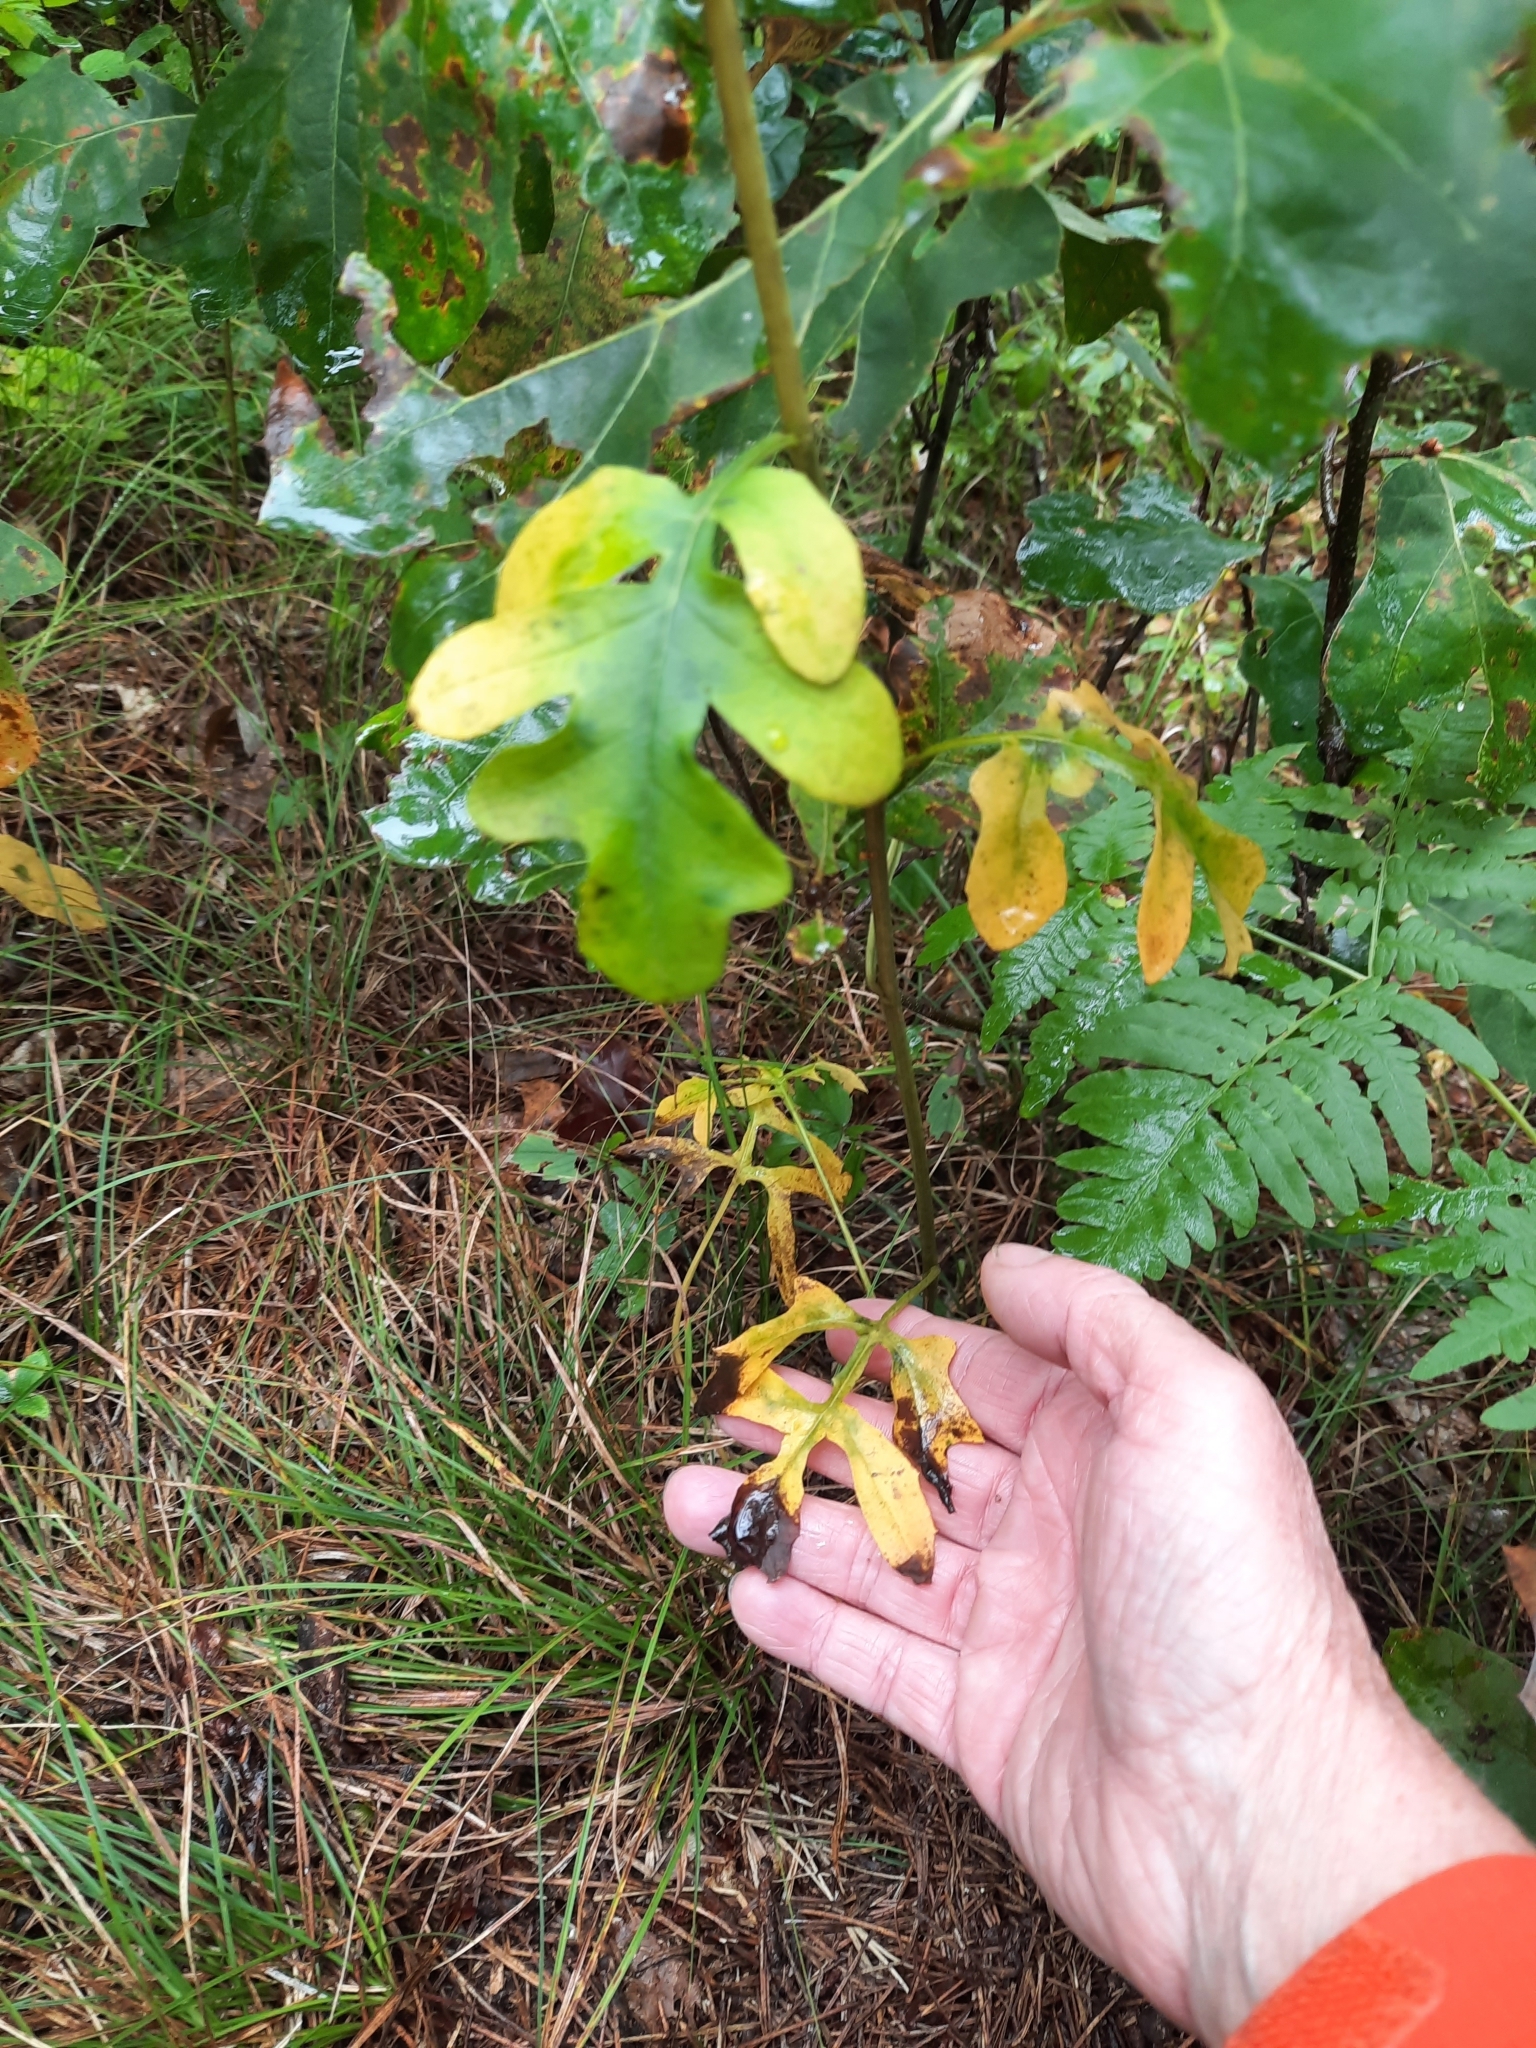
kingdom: Plantae
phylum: Tracheophyta
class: Magnoliopsida
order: Asterales
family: Asteraceae
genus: Nabalus
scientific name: Nabalus serpentarius
